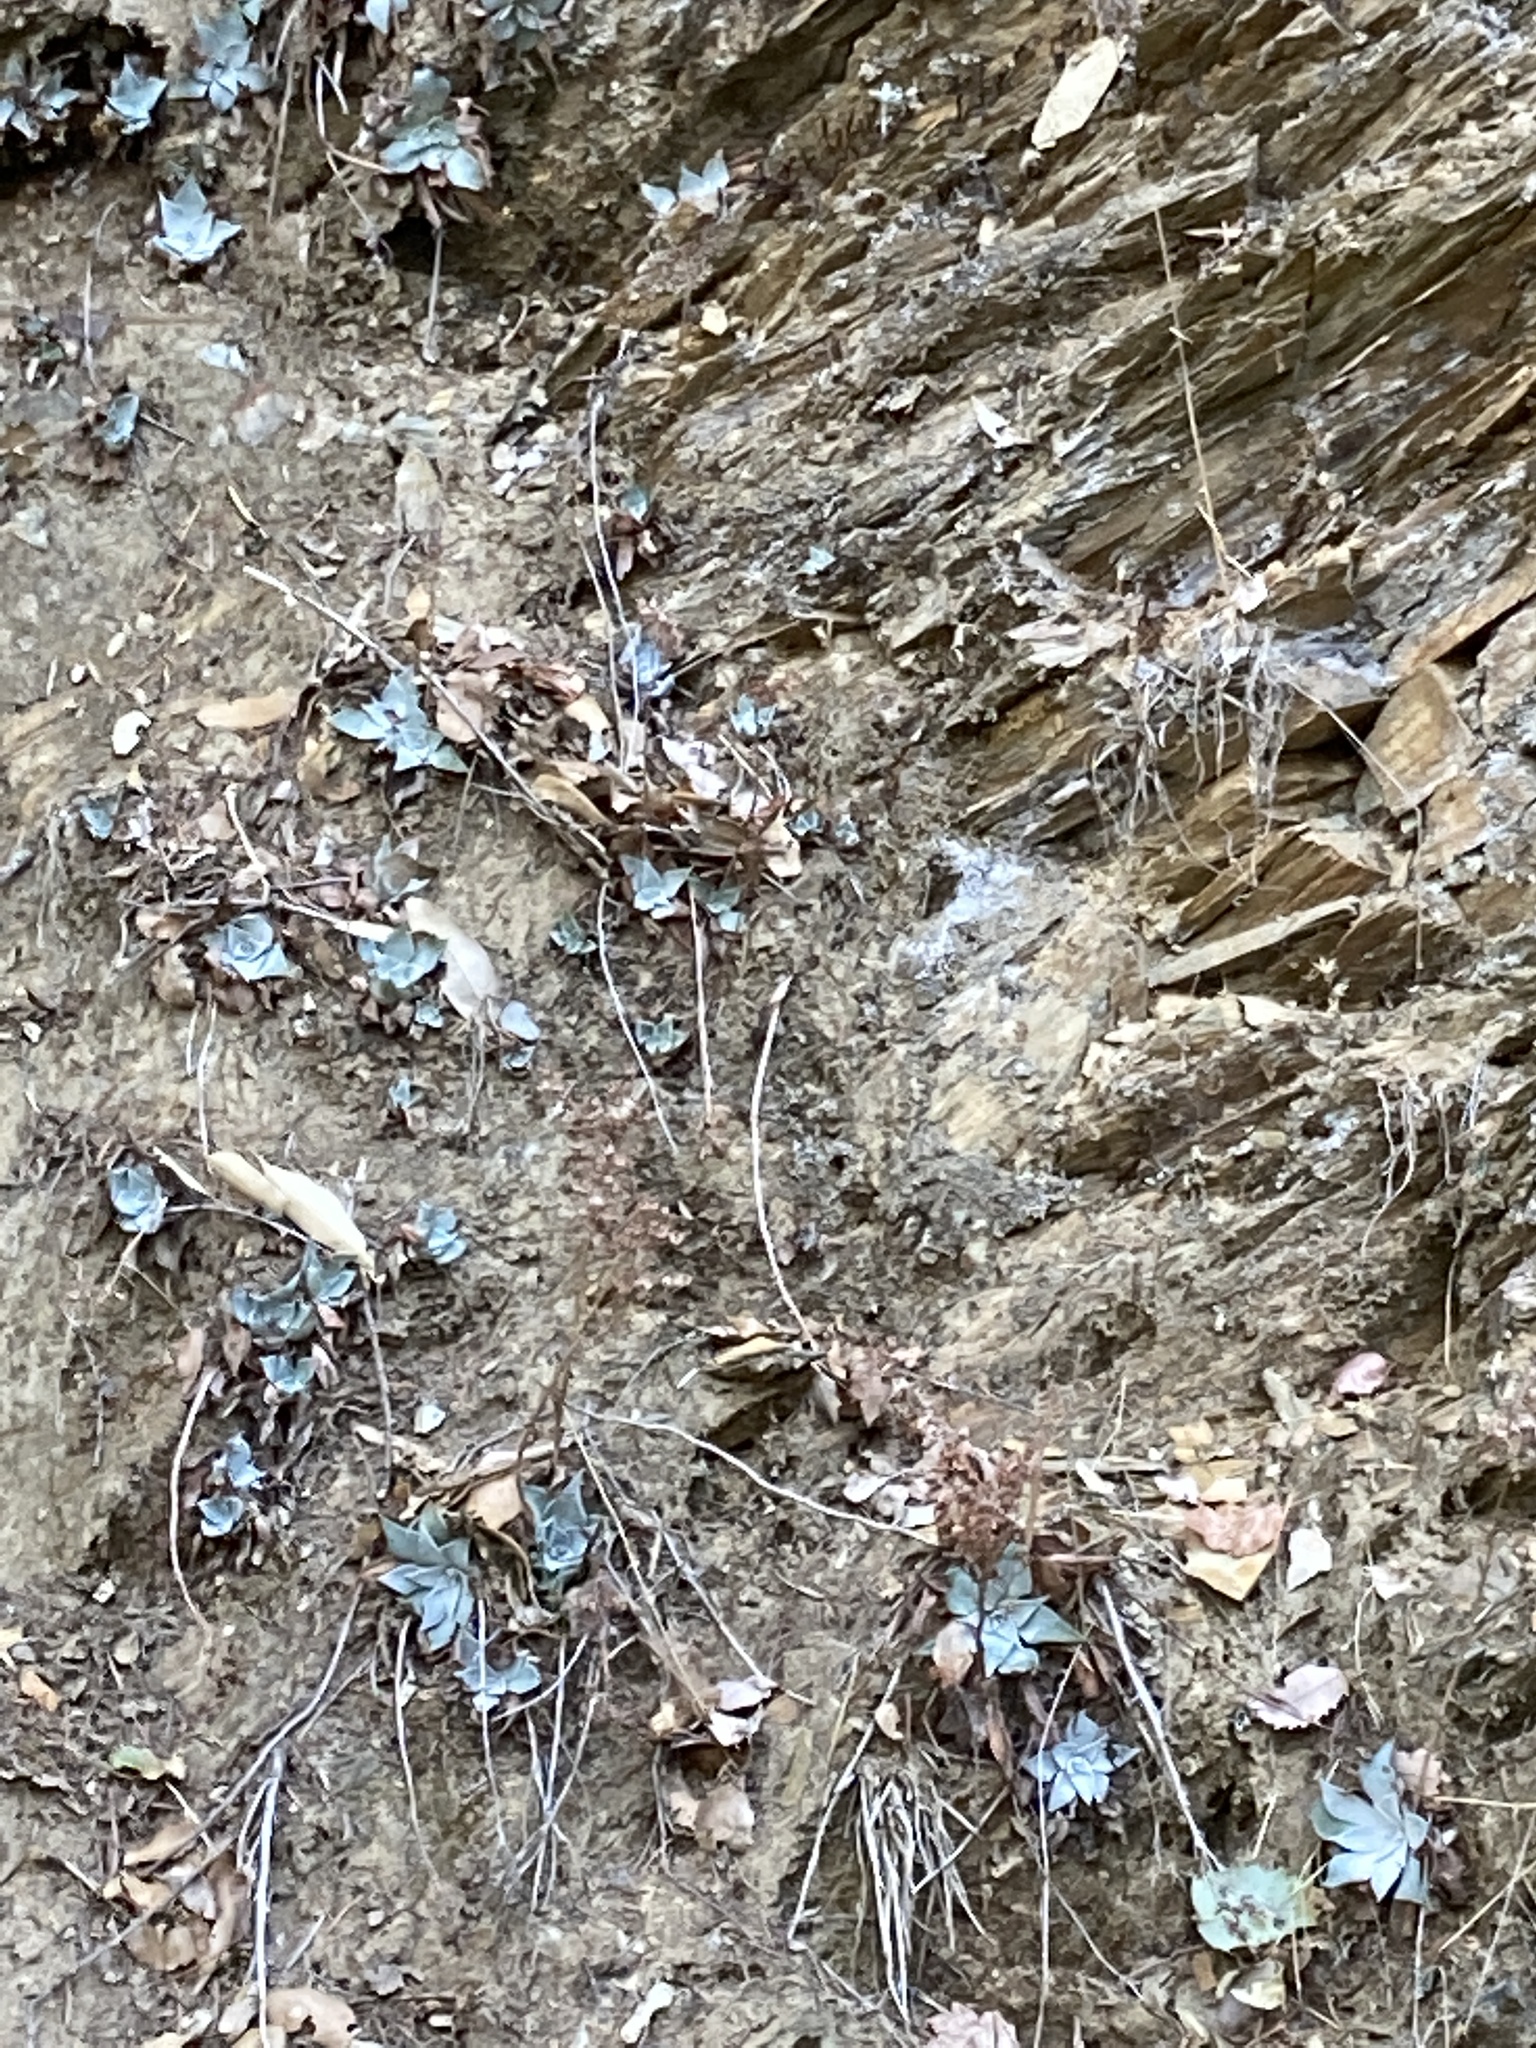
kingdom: Plantae
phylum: Tracheophyta
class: Magnoliopsida
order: Saxifragales
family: Crassulaceae
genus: Dudleya
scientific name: Dudleya cymosa
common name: Canyon dudleya
